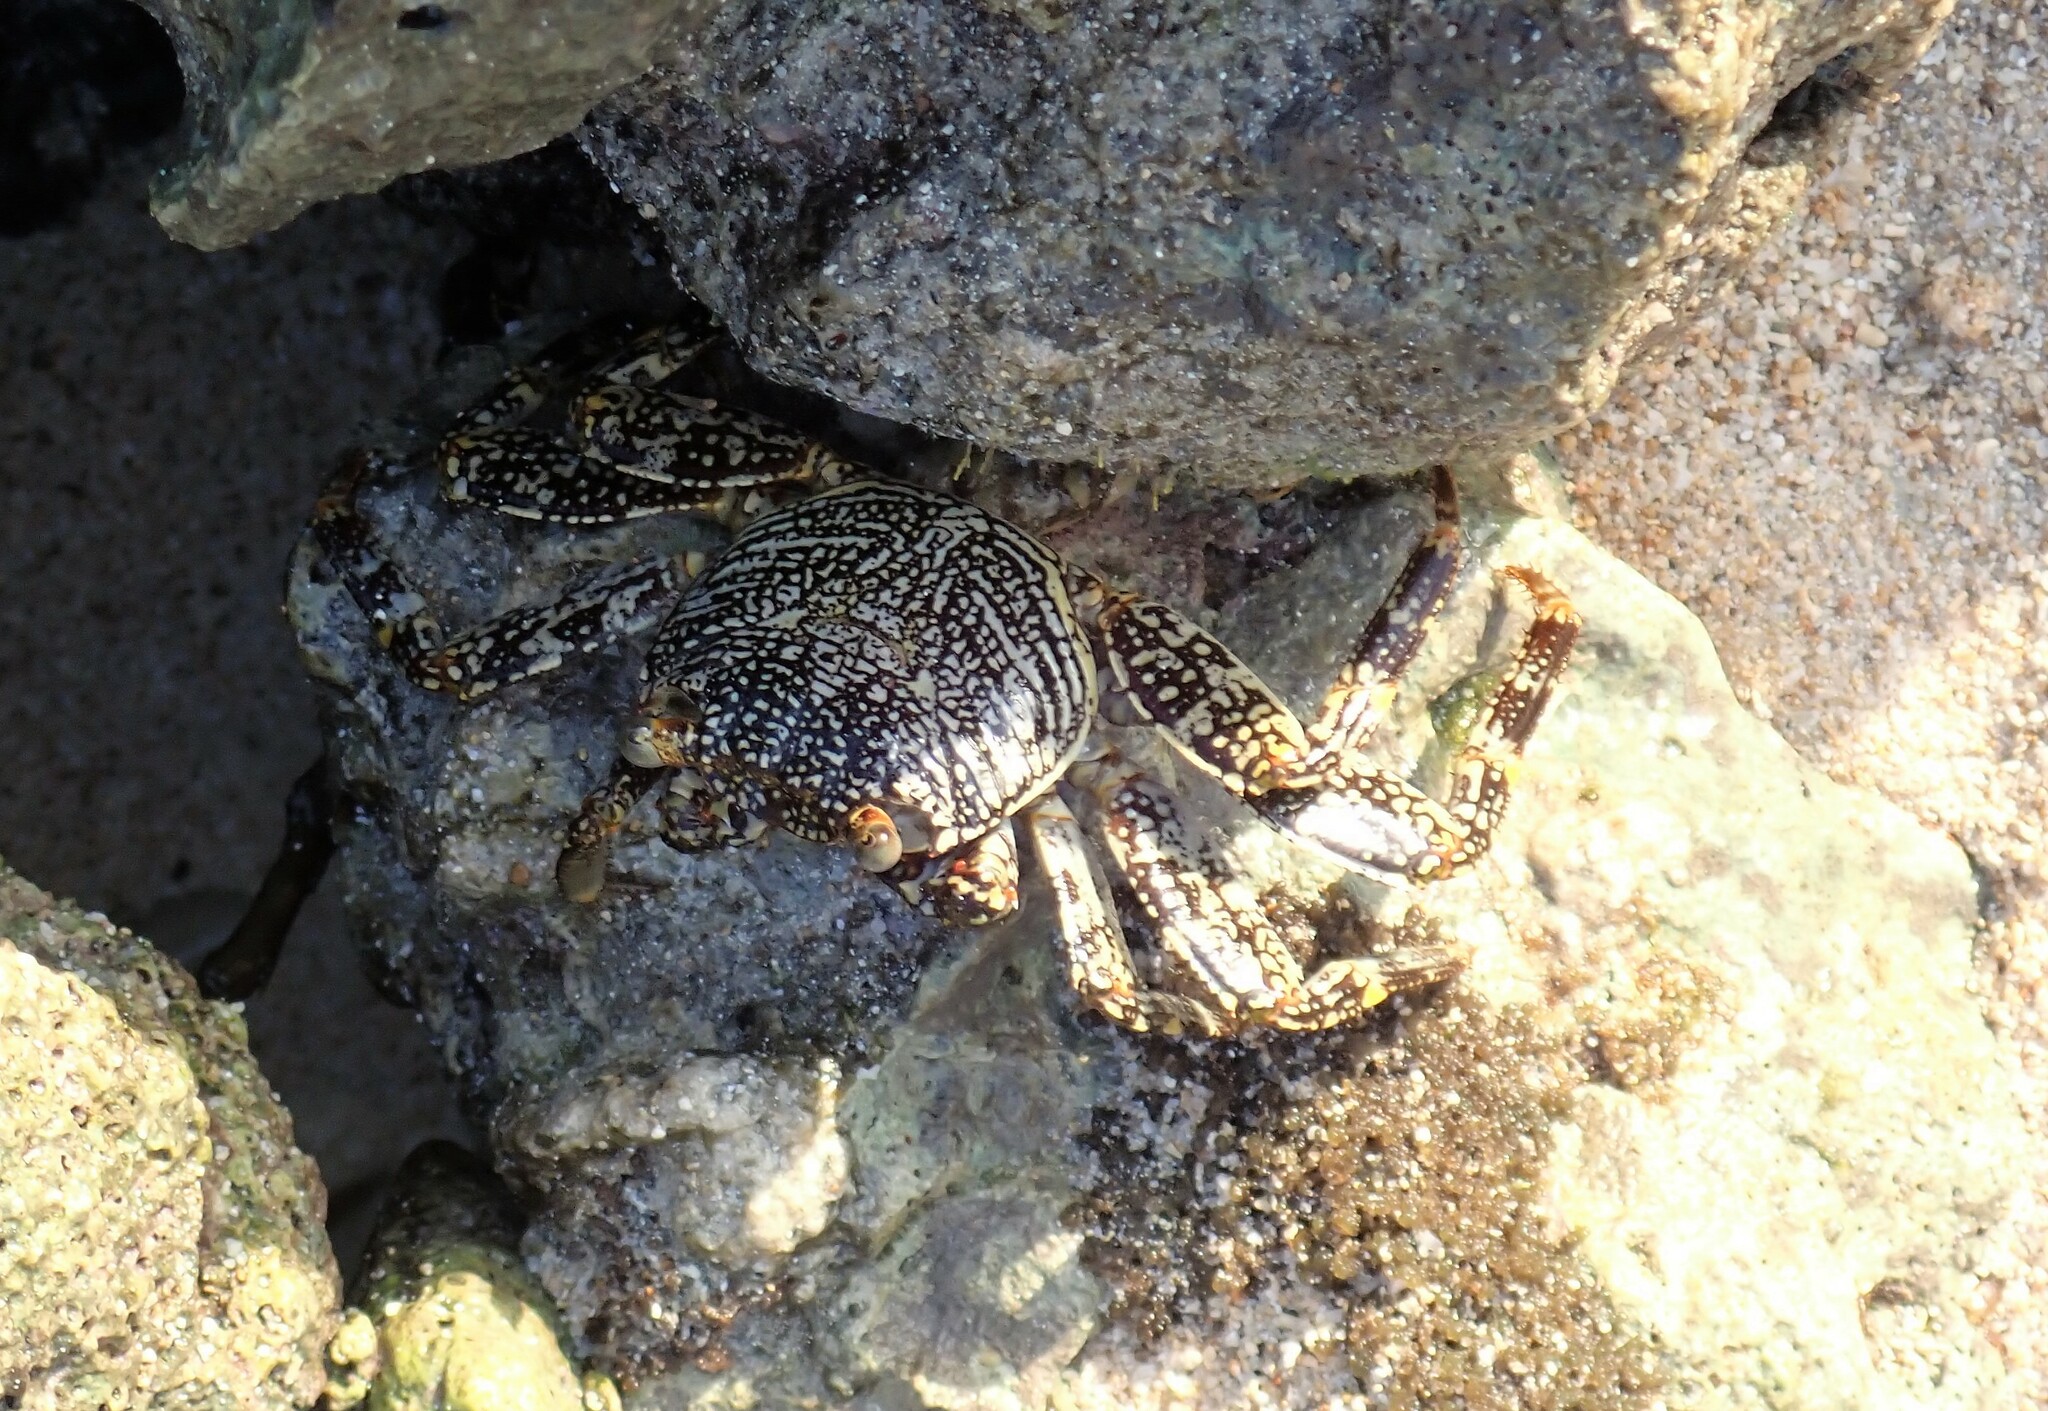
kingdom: Animalia
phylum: Arthropoda
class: Malacostraca
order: Decapoda
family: Grapsidae
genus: Grapsus
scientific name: Grapsus grapsus
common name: Sally lightfoot
